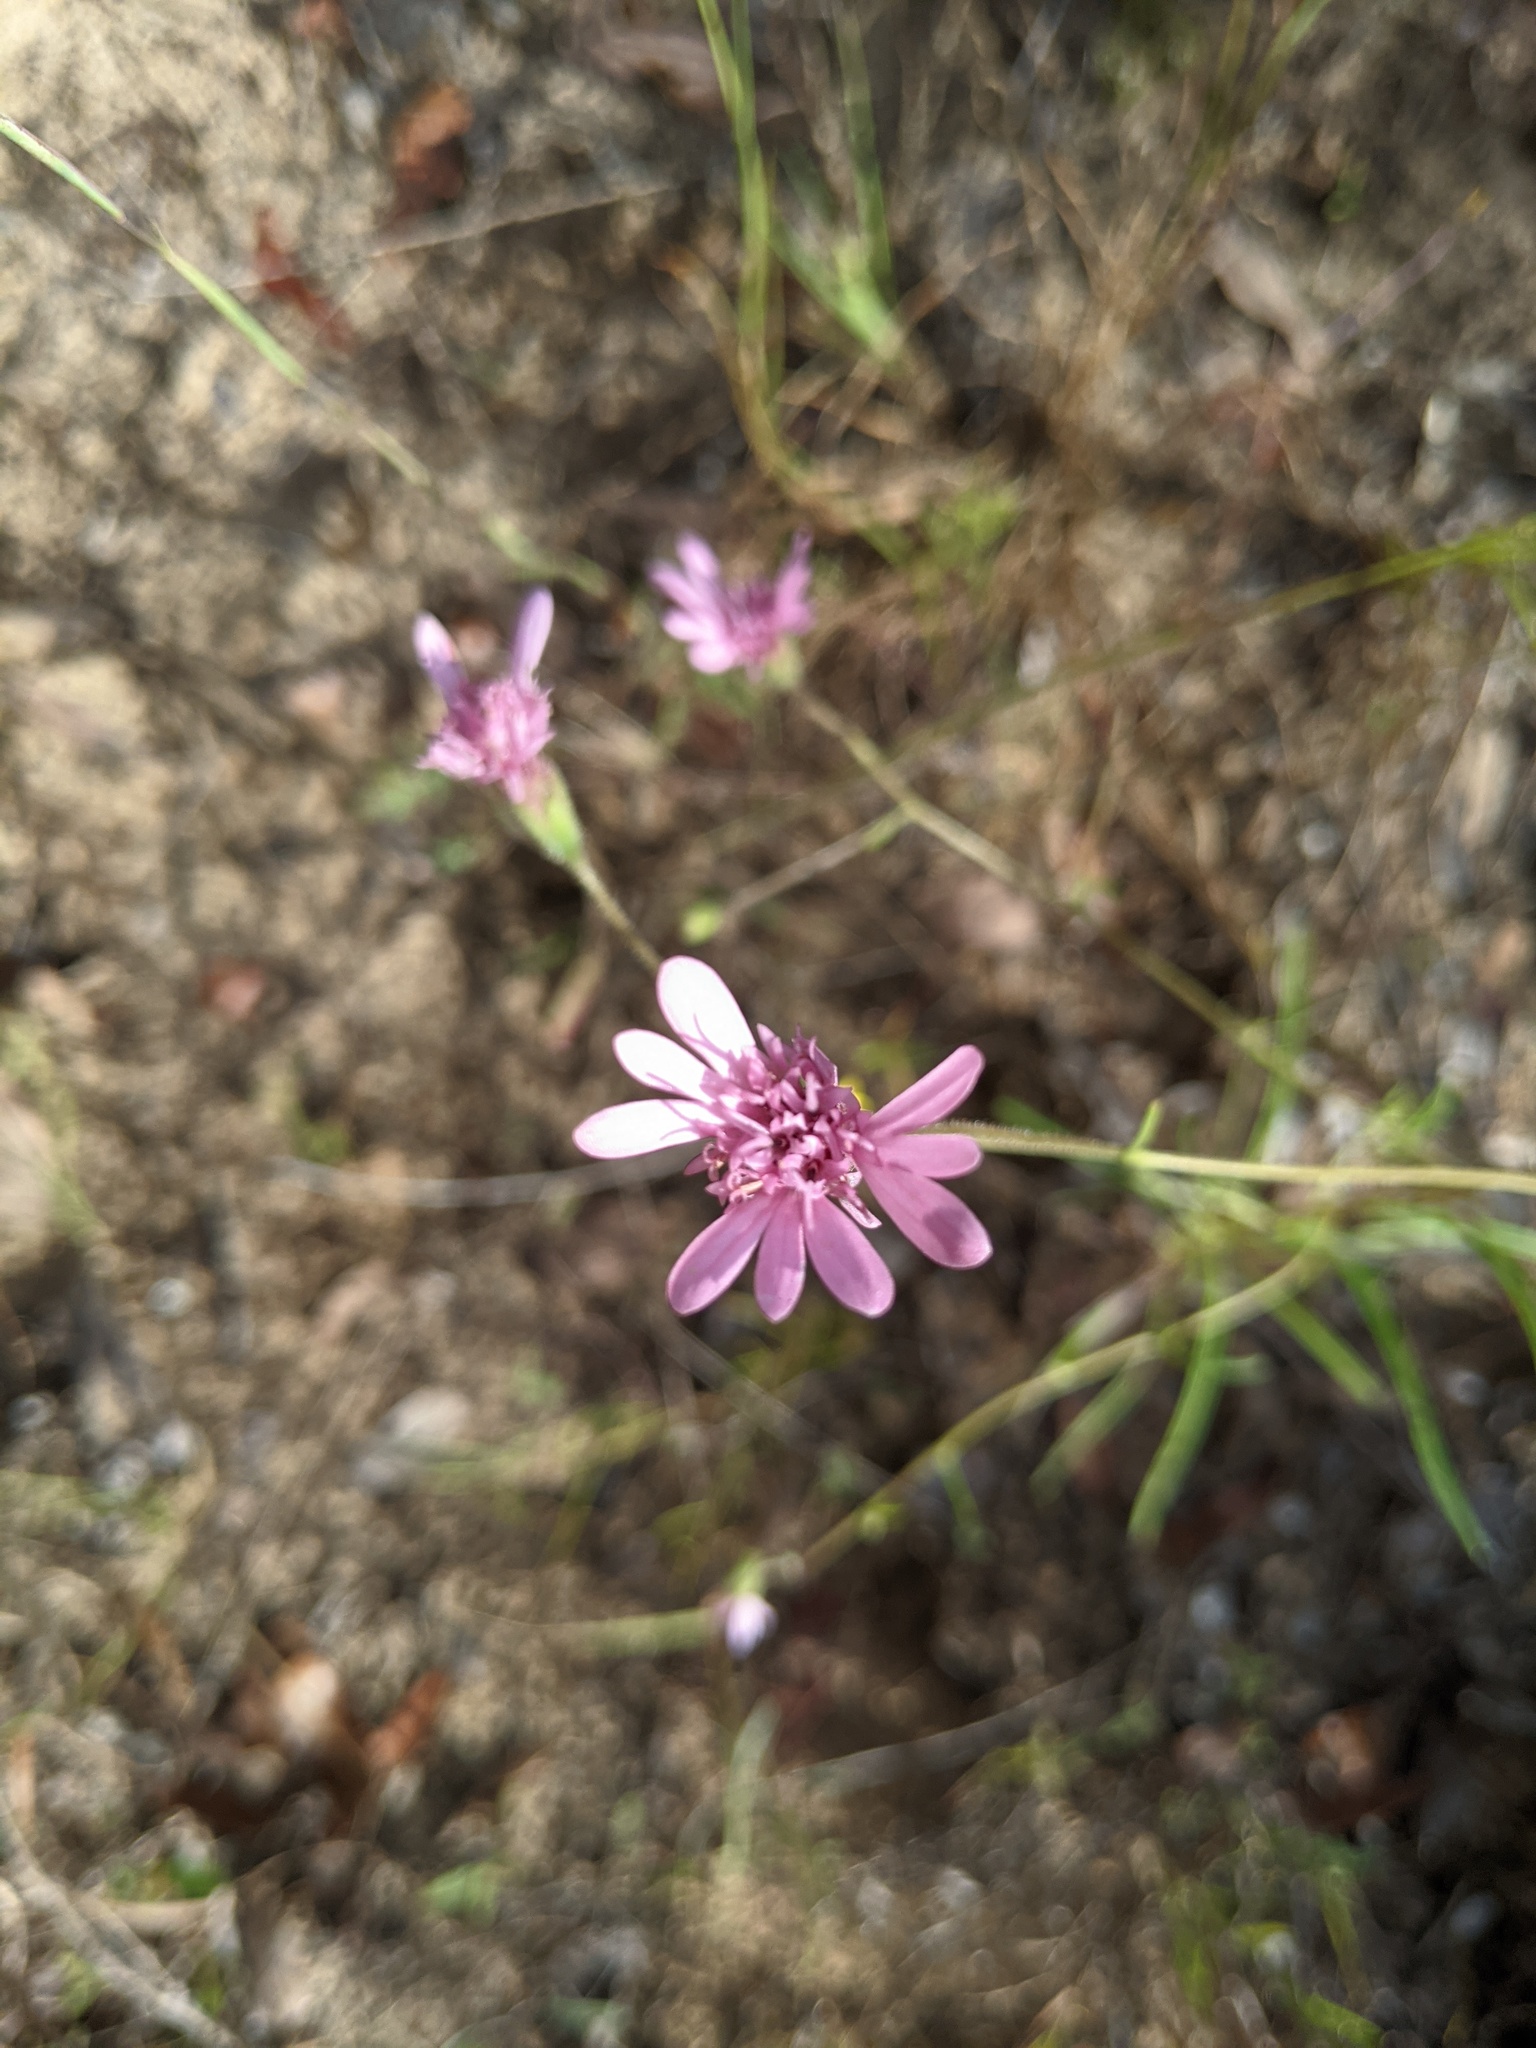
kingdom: Plantae
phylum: Tracheophyta
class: Magnoliopsida
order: Asterales
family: Asteraceae
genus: Palafoxia
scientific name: Palafoxia hookeriana
